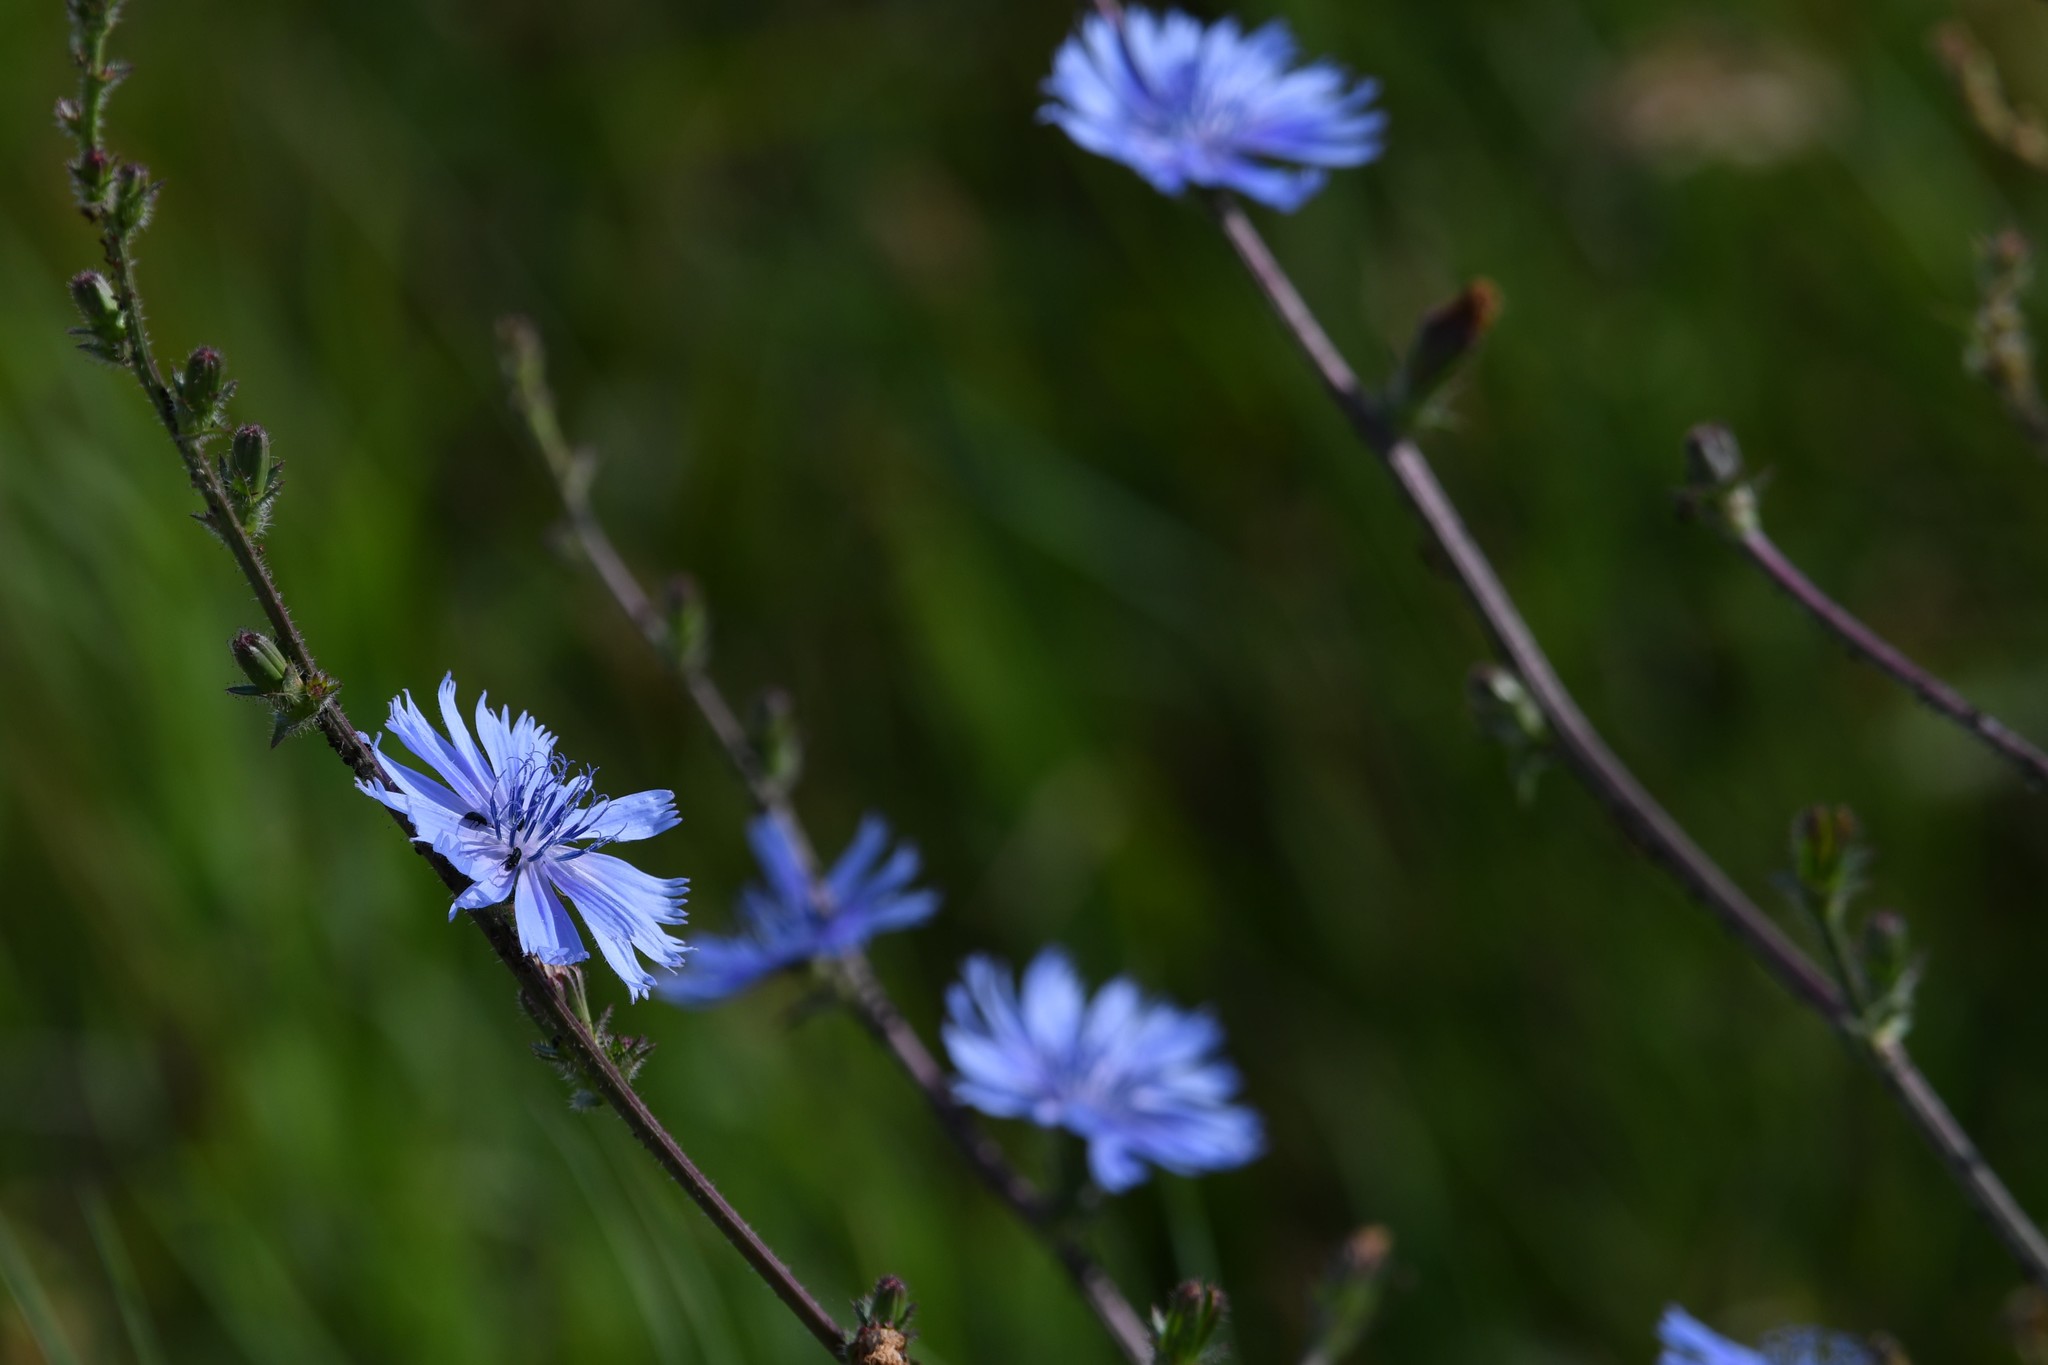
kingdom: Plantae
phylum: Tracheophyta
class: Magnoliopsida
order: Asterales
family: Asteraceae
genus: Cichorium
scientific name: Cichorium intybus
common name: Chicory
